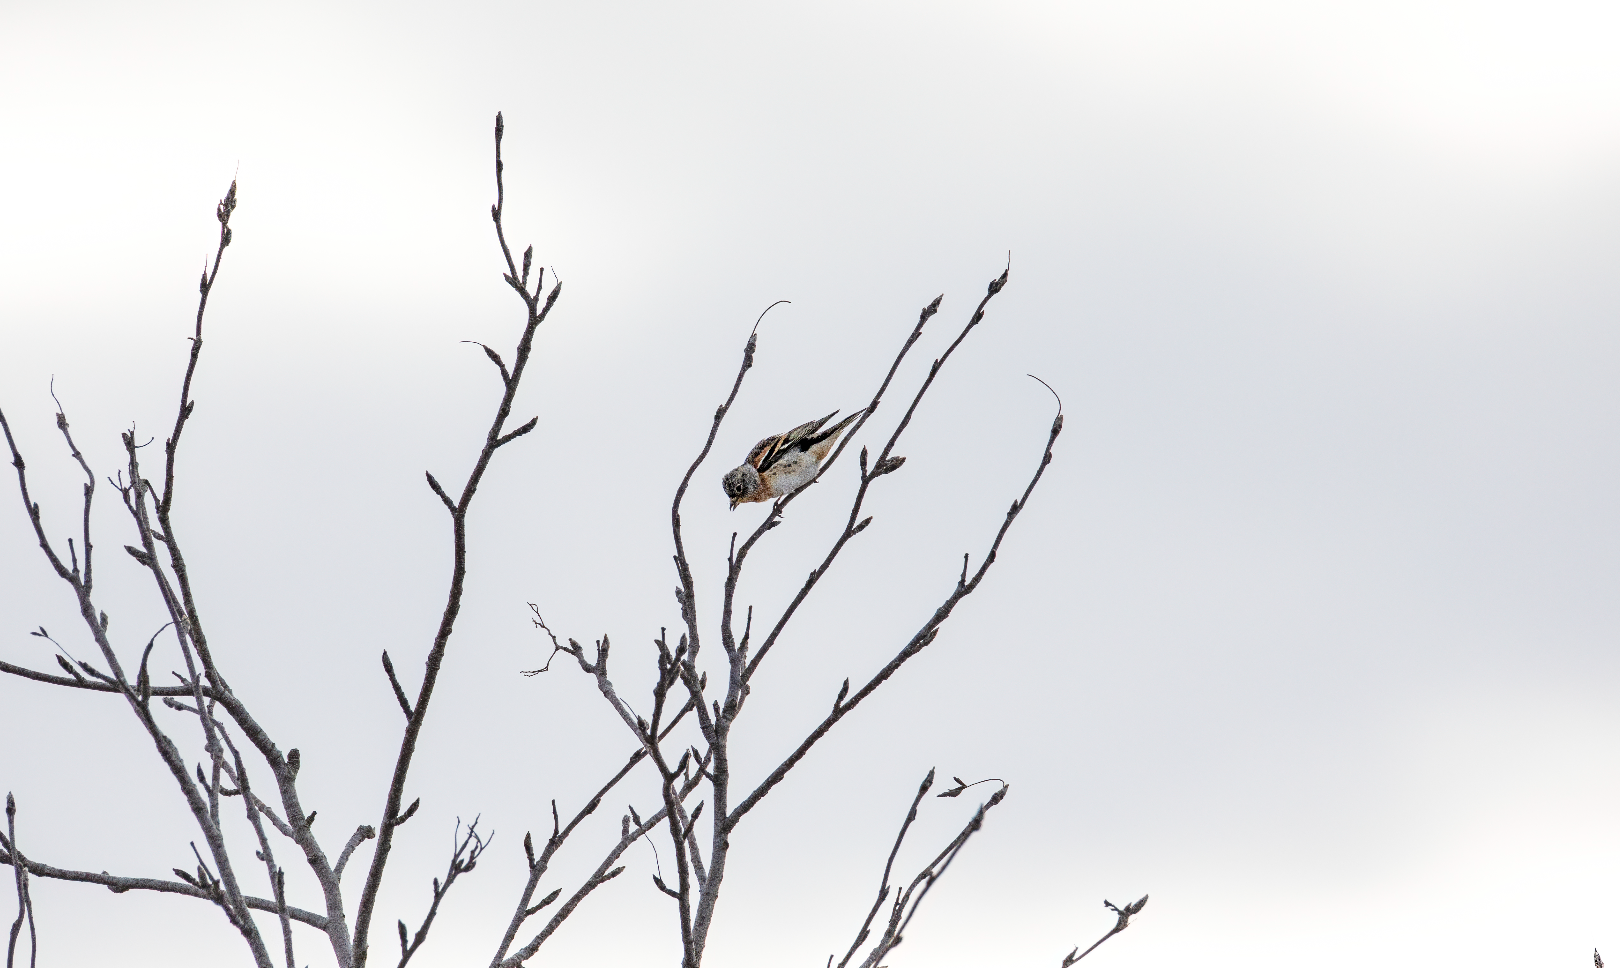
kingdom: Animalia
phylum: Chordata
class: Aves
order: Passeriformes
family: Fringillidae
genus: Fringilla
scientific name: Fringilla montifringilla
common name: Brambling
